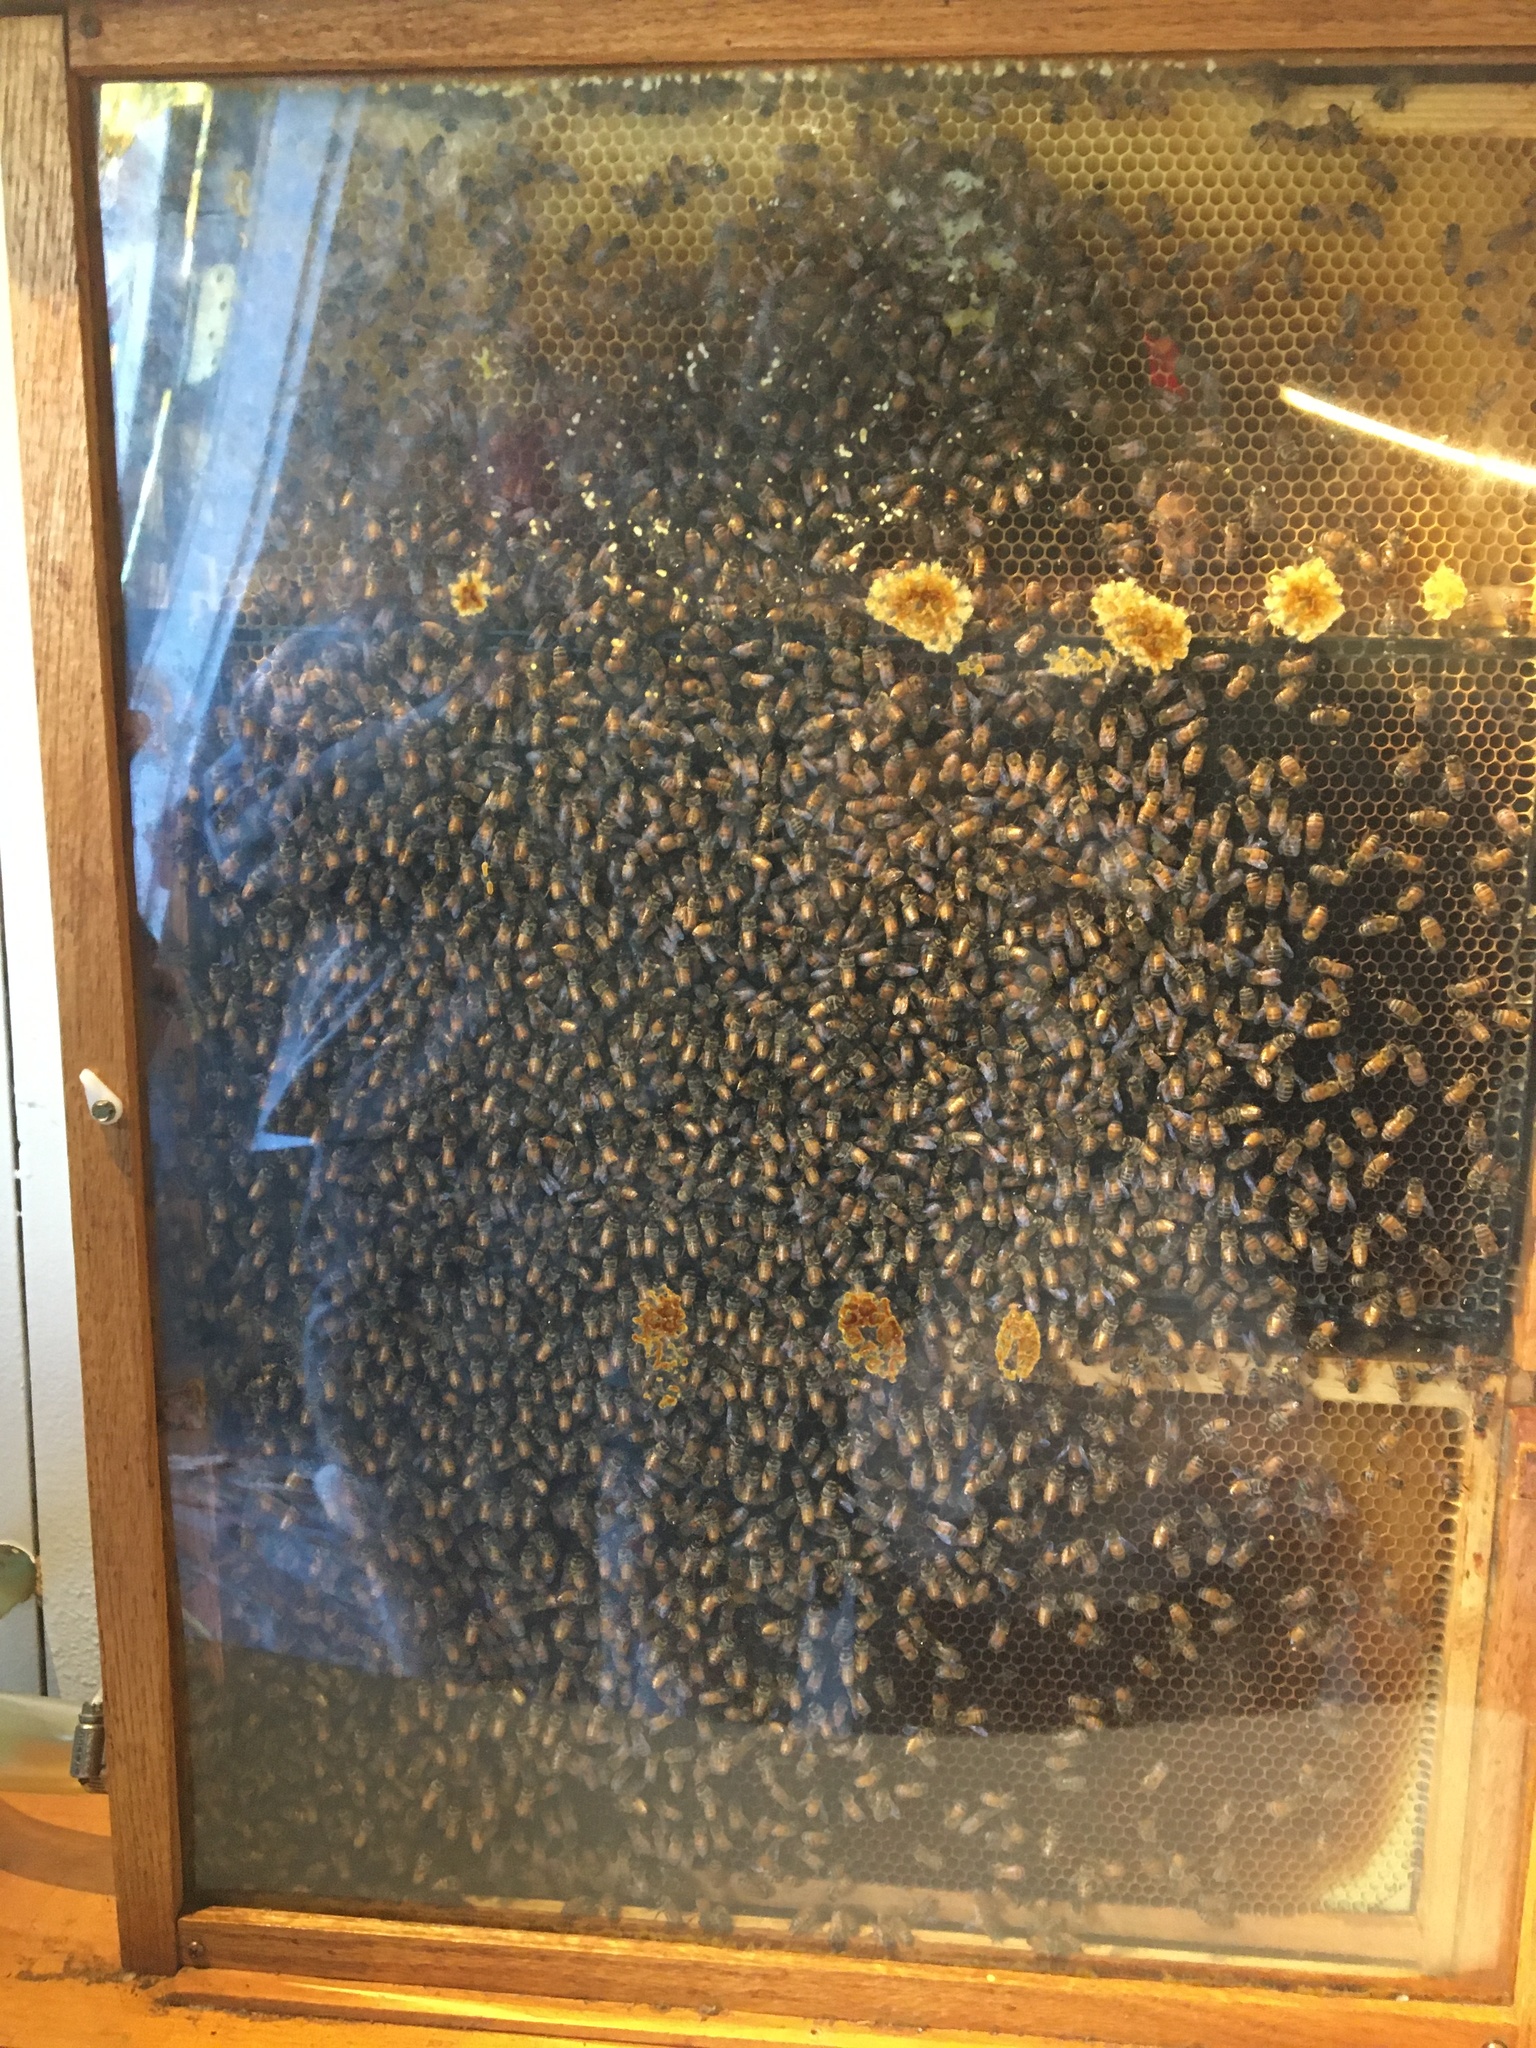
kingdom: Animalia
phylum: Arthropoda
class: Insecta
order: Hymenoptera
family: Apidae
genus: Apis
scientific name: Apis mellifera
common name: Honey bee
